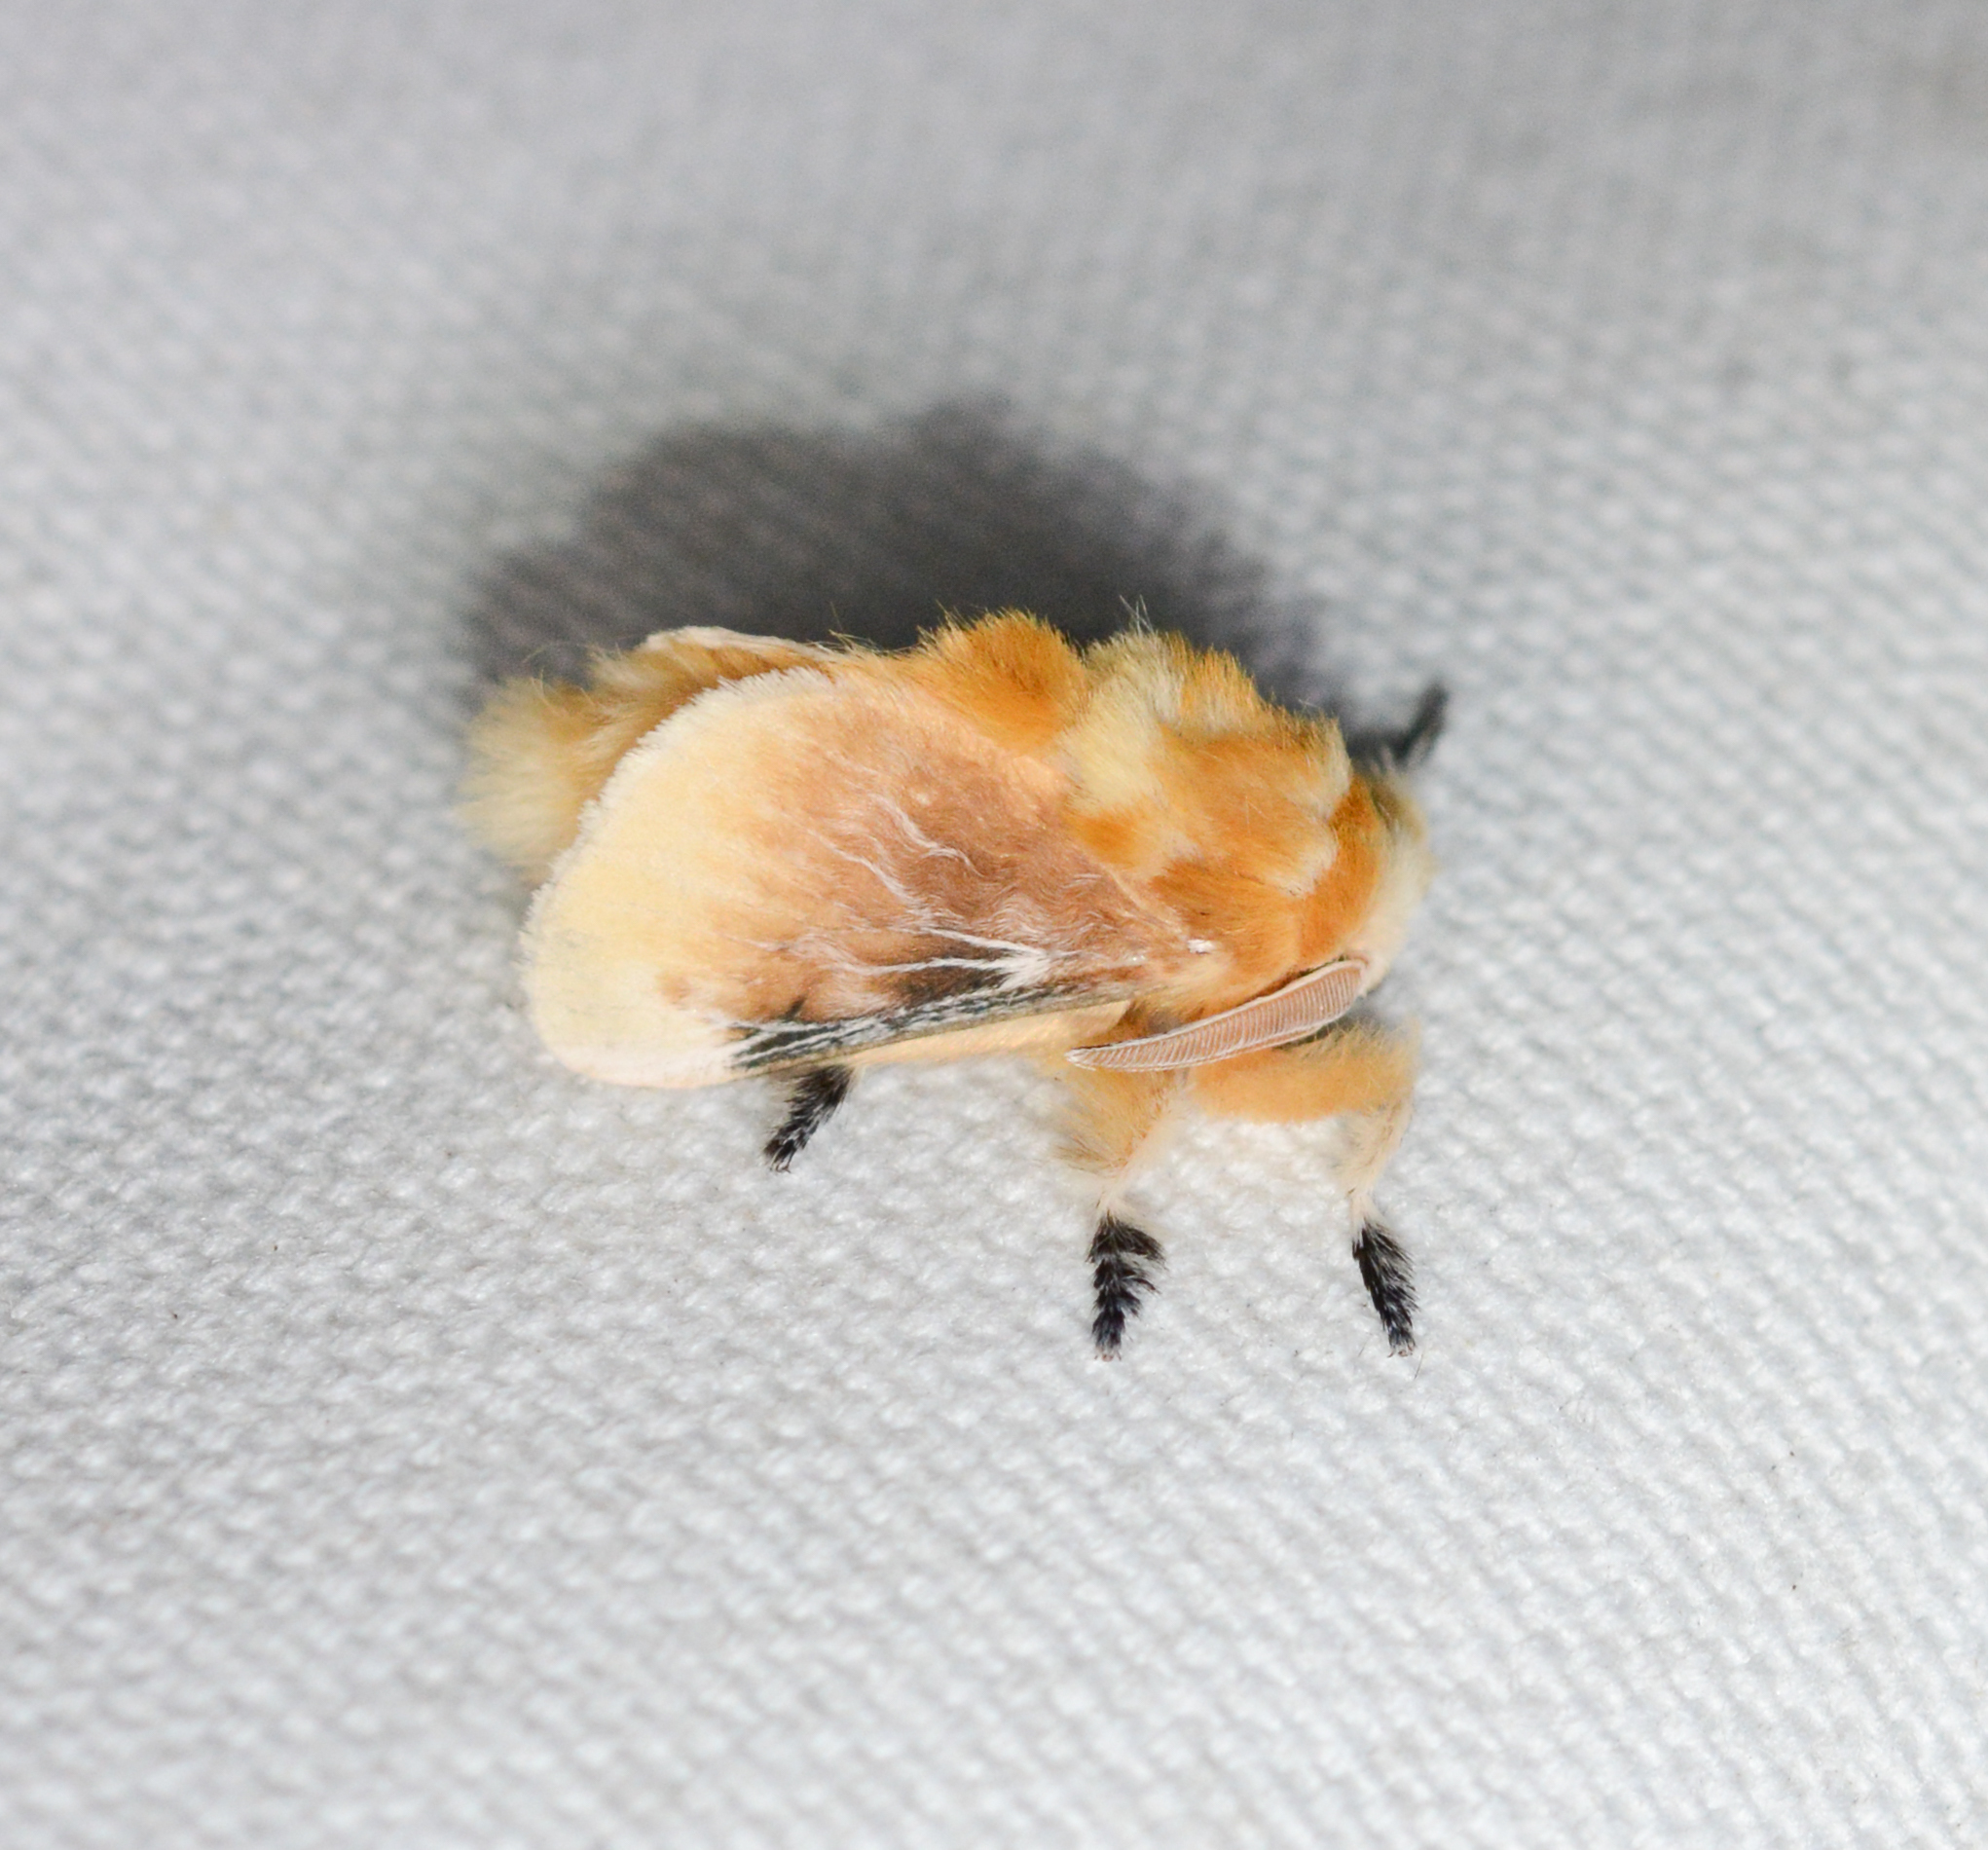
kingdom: Animalia
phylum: Arthropoda
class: Insecta
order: Lepidoptera
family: Megalopygidae
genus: Megalopyge
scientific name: Megalopyge opercularis
